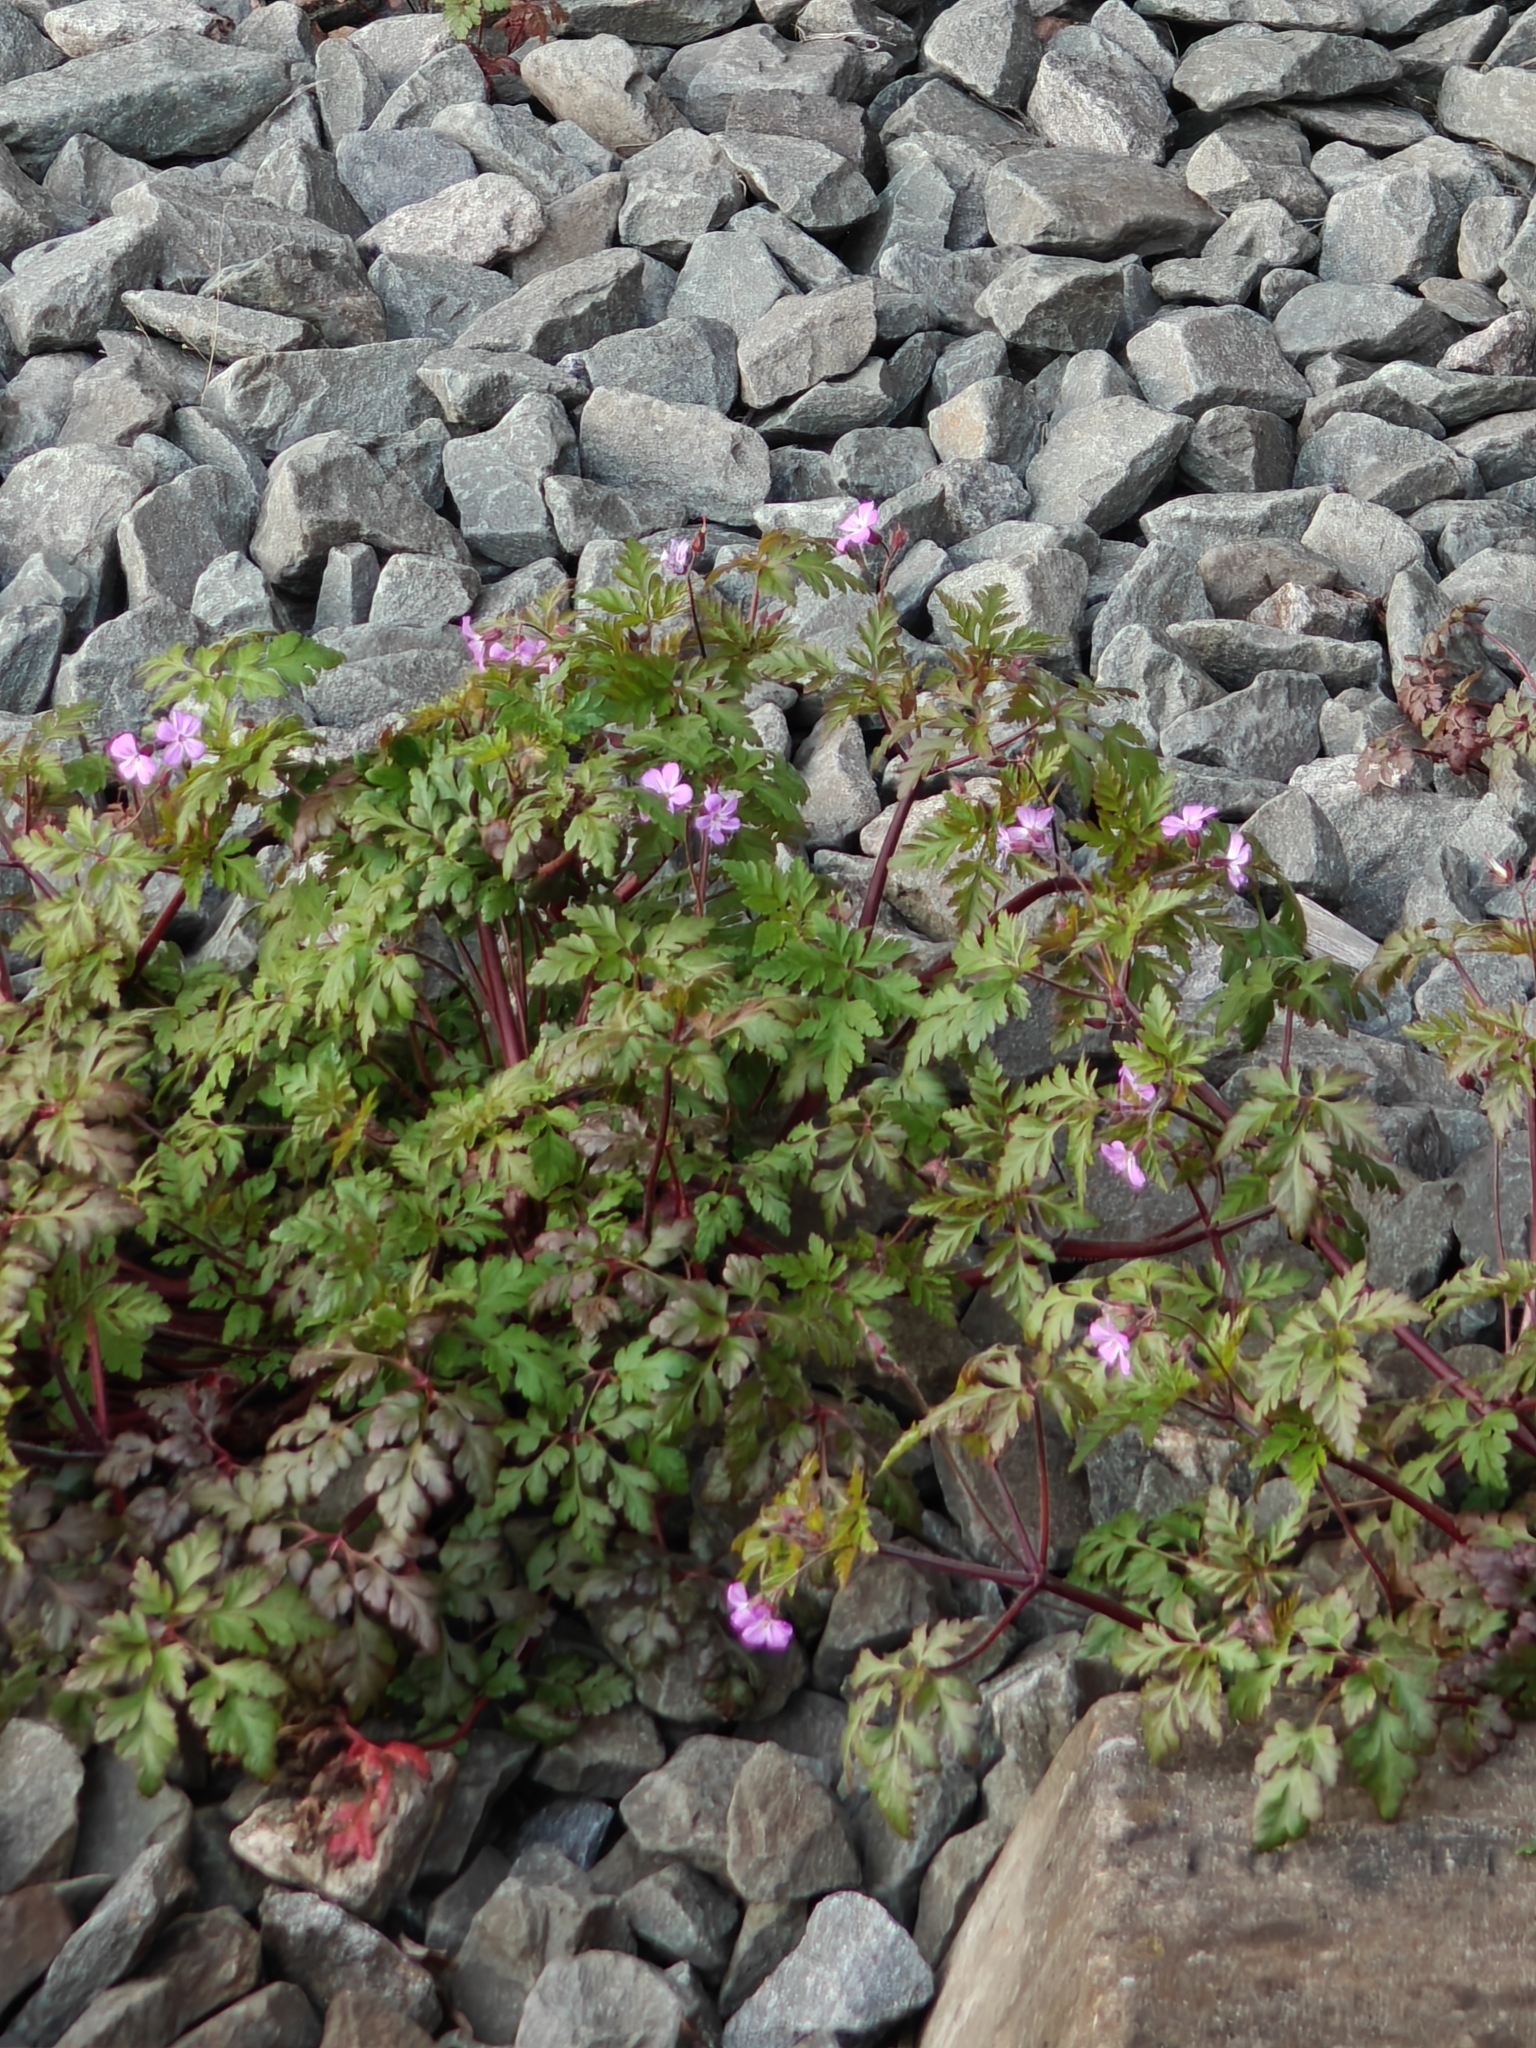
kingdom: Plantae
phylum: Tracheophyta
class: Magnoliopsida
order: Geraniales
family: Geraniaceae
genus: Geranium
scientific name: Geranium robertianum
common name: Herb-robert
